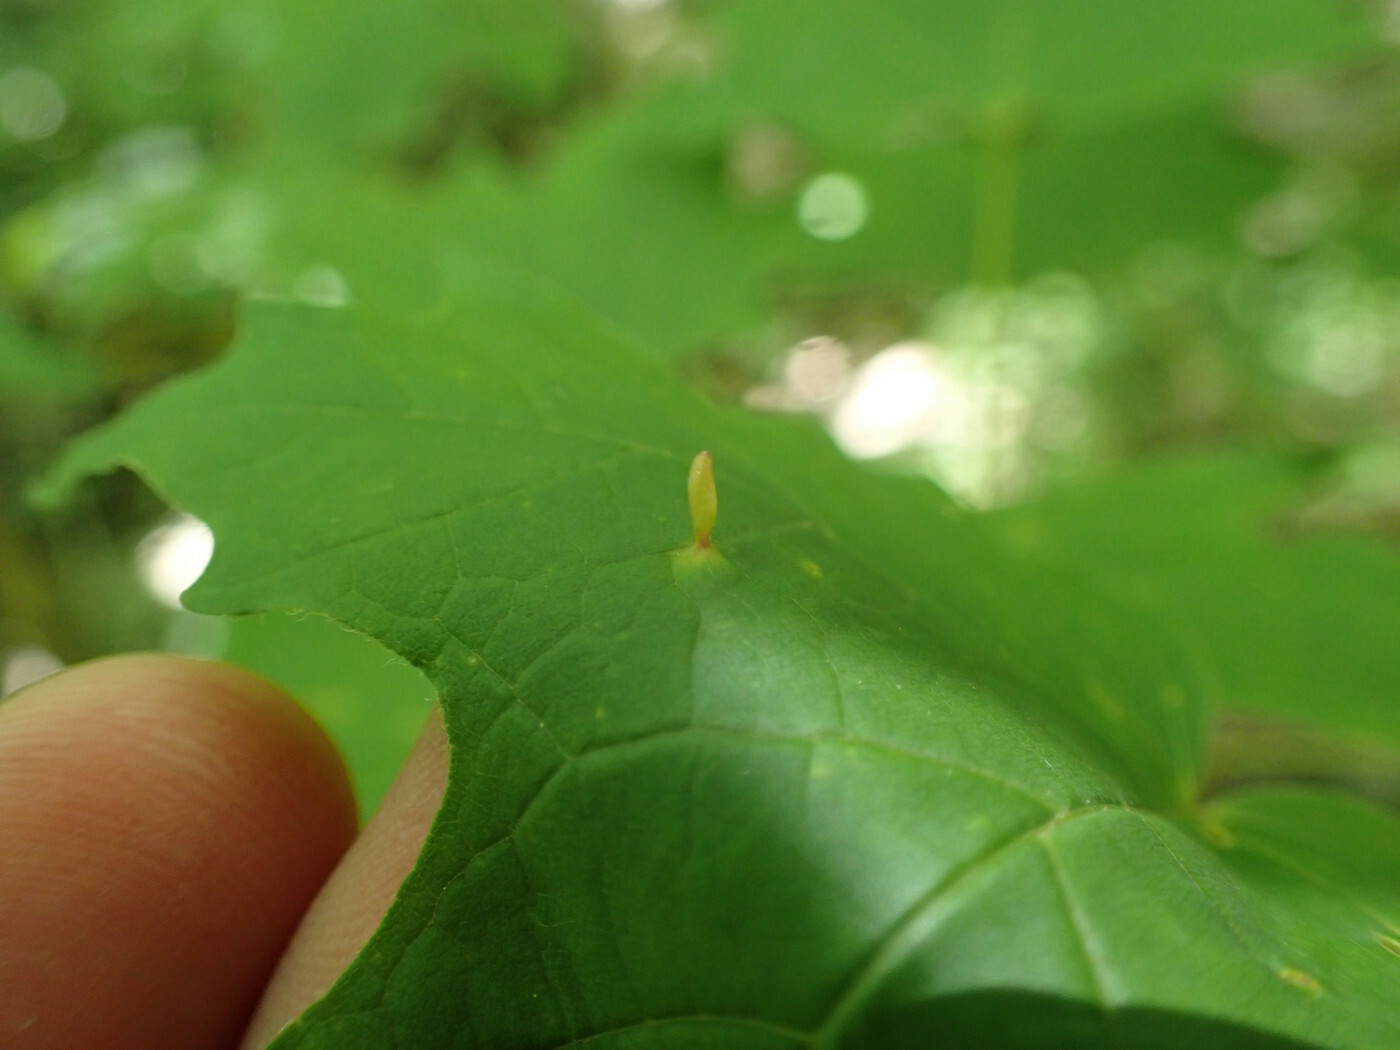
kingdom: Animalia
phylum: Arthropoda
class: Arachnida
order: Trombidiformes
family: Eriophyidae
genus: Vasates
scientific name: Vasates aceriscrumena
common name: Maple spindle gall mite
